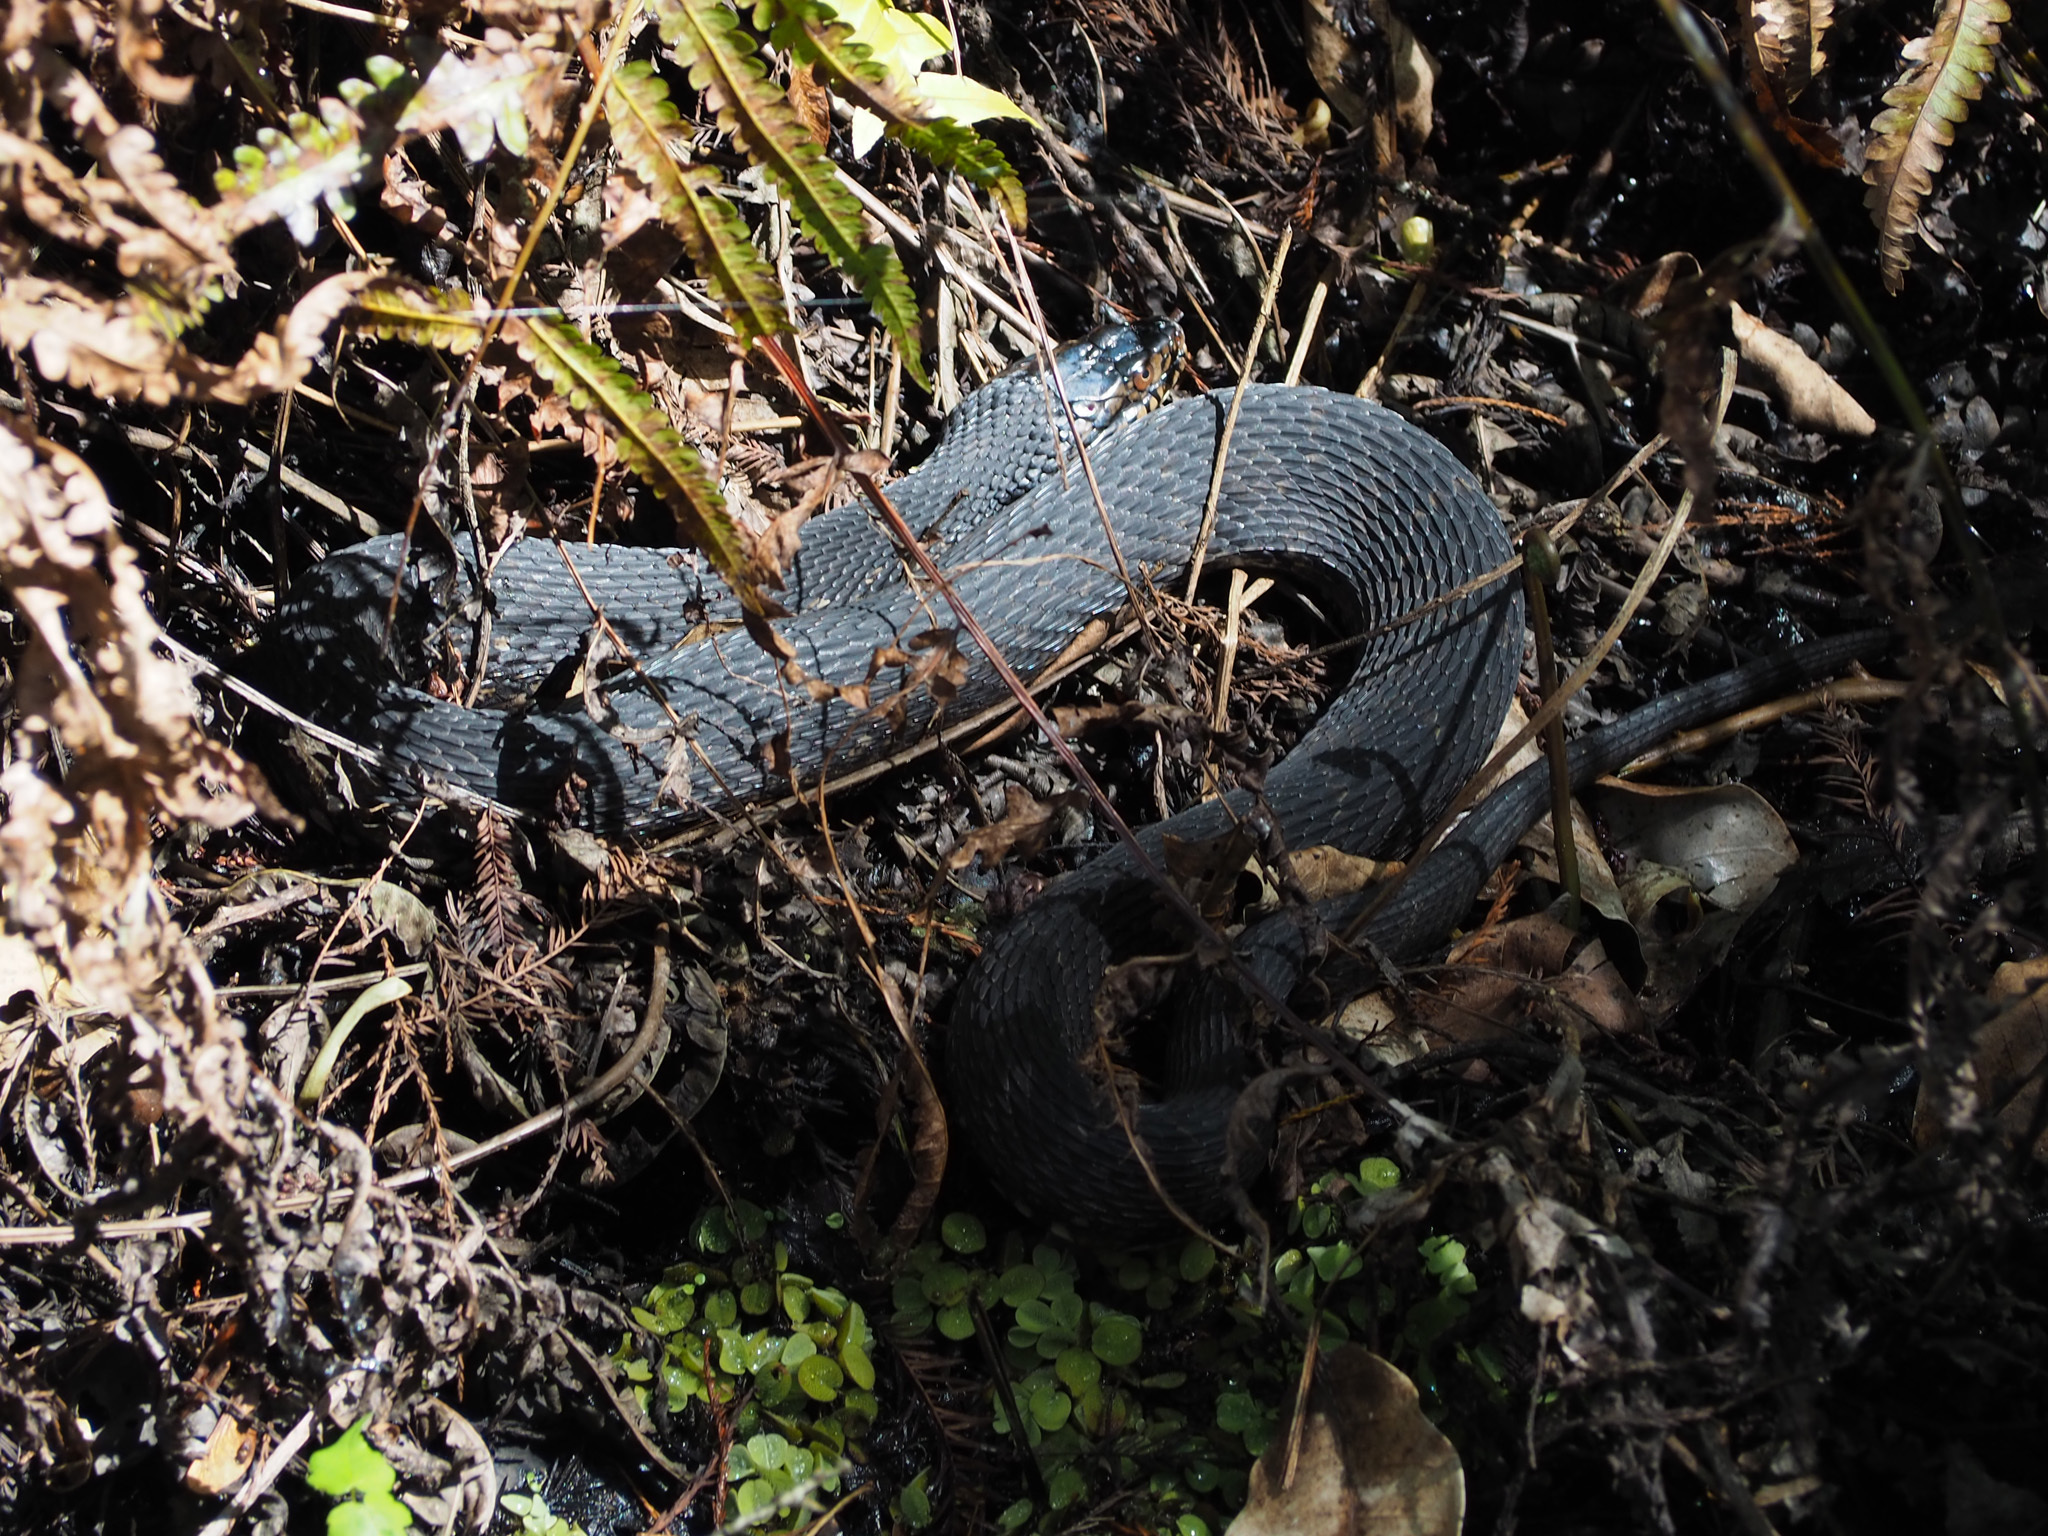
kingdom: Animalia
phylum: Chordata
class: Squamata
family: Colubridae
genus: Nerodia
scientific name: Nerodia fasciata
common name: Southern water snake
